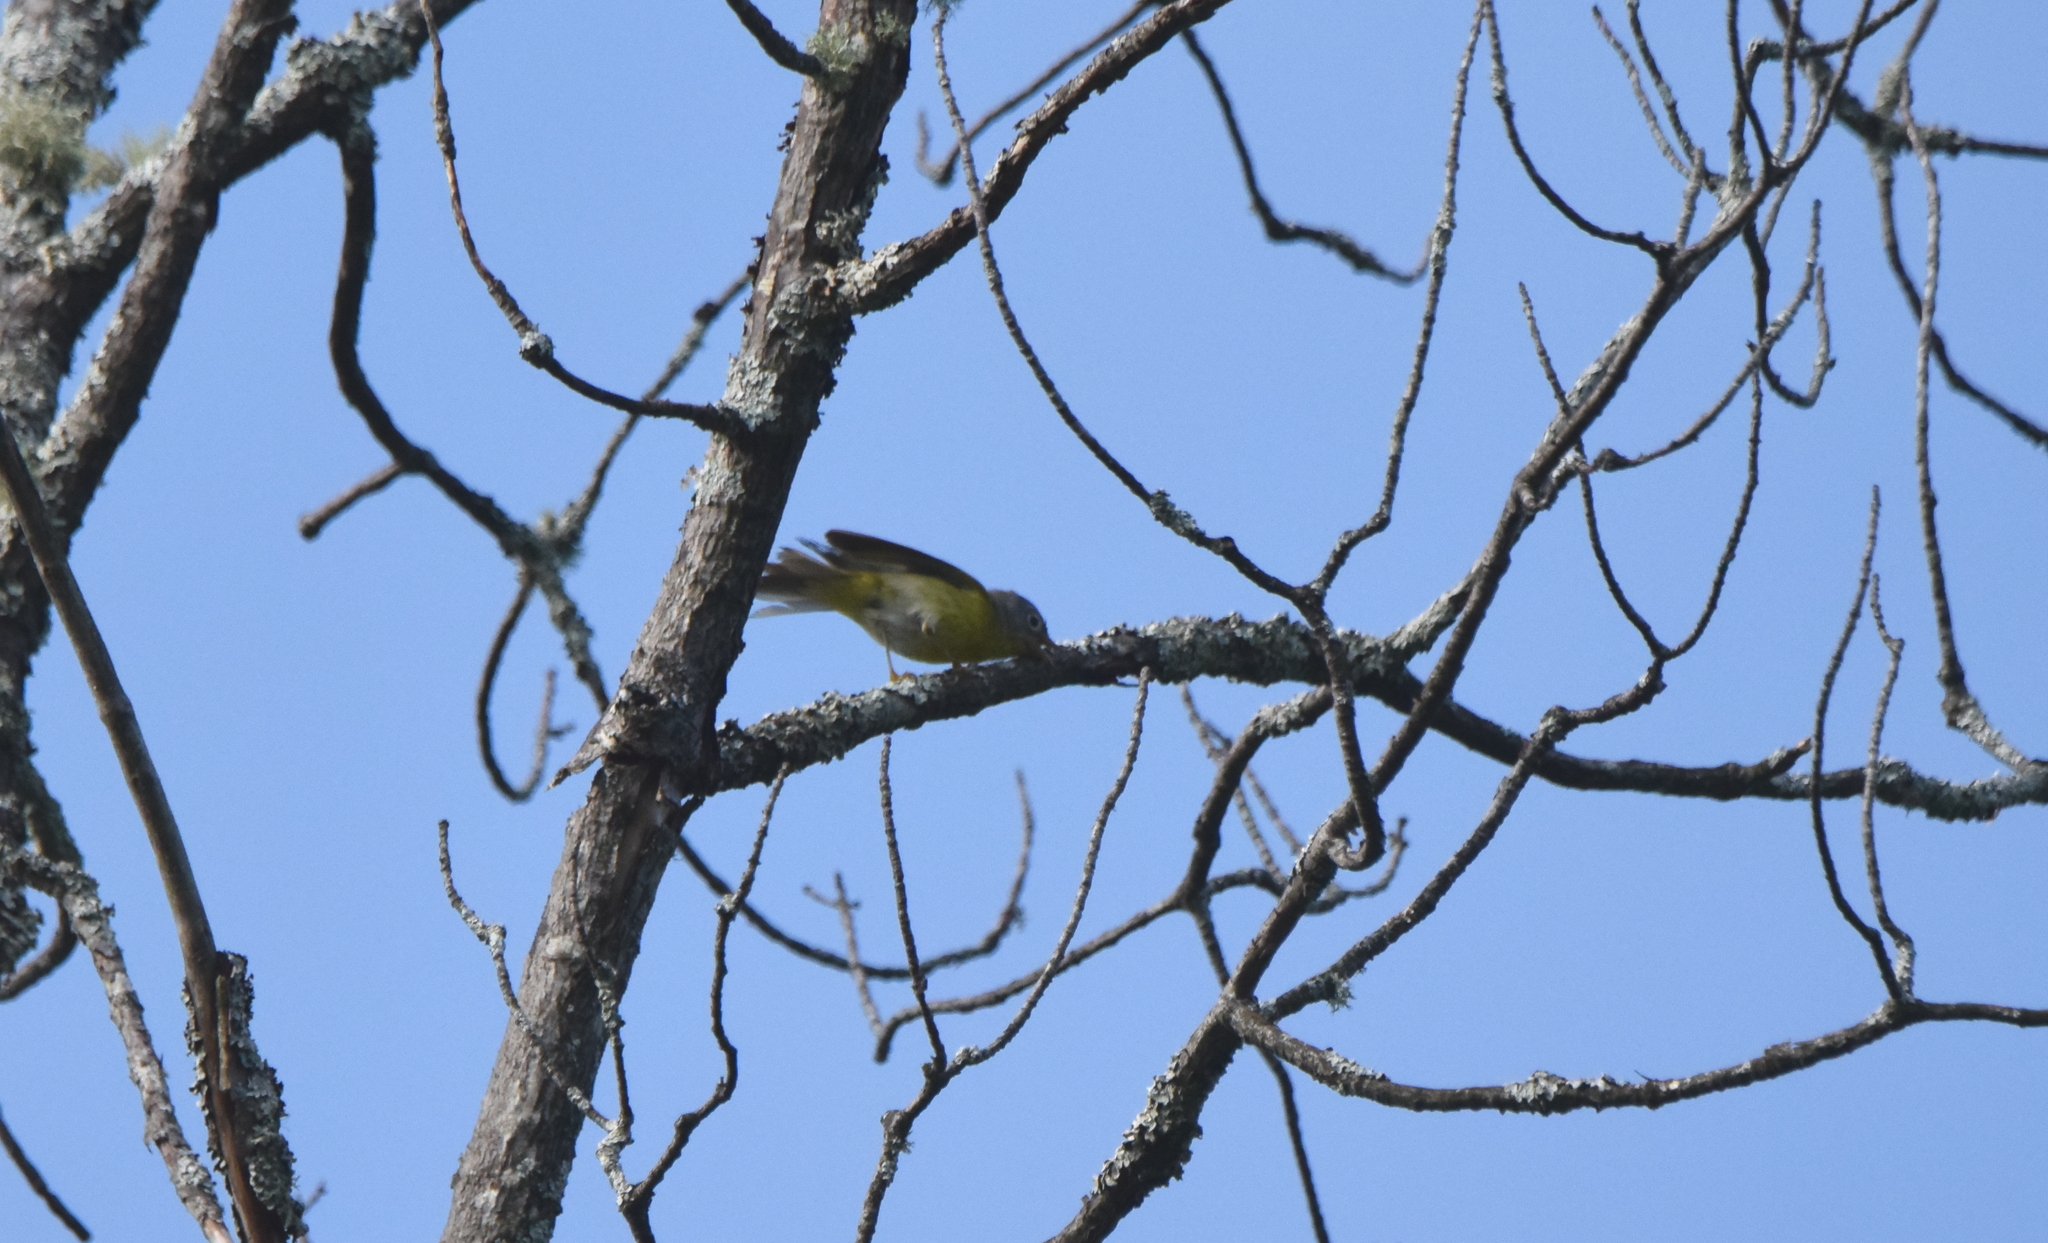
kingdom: Animalia
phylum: Chordata
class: Aves
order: Passeriformes
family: Parulidae
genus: Leiothlypis
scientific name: Leiothlypis ruficapilla
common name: Nashville warbler
